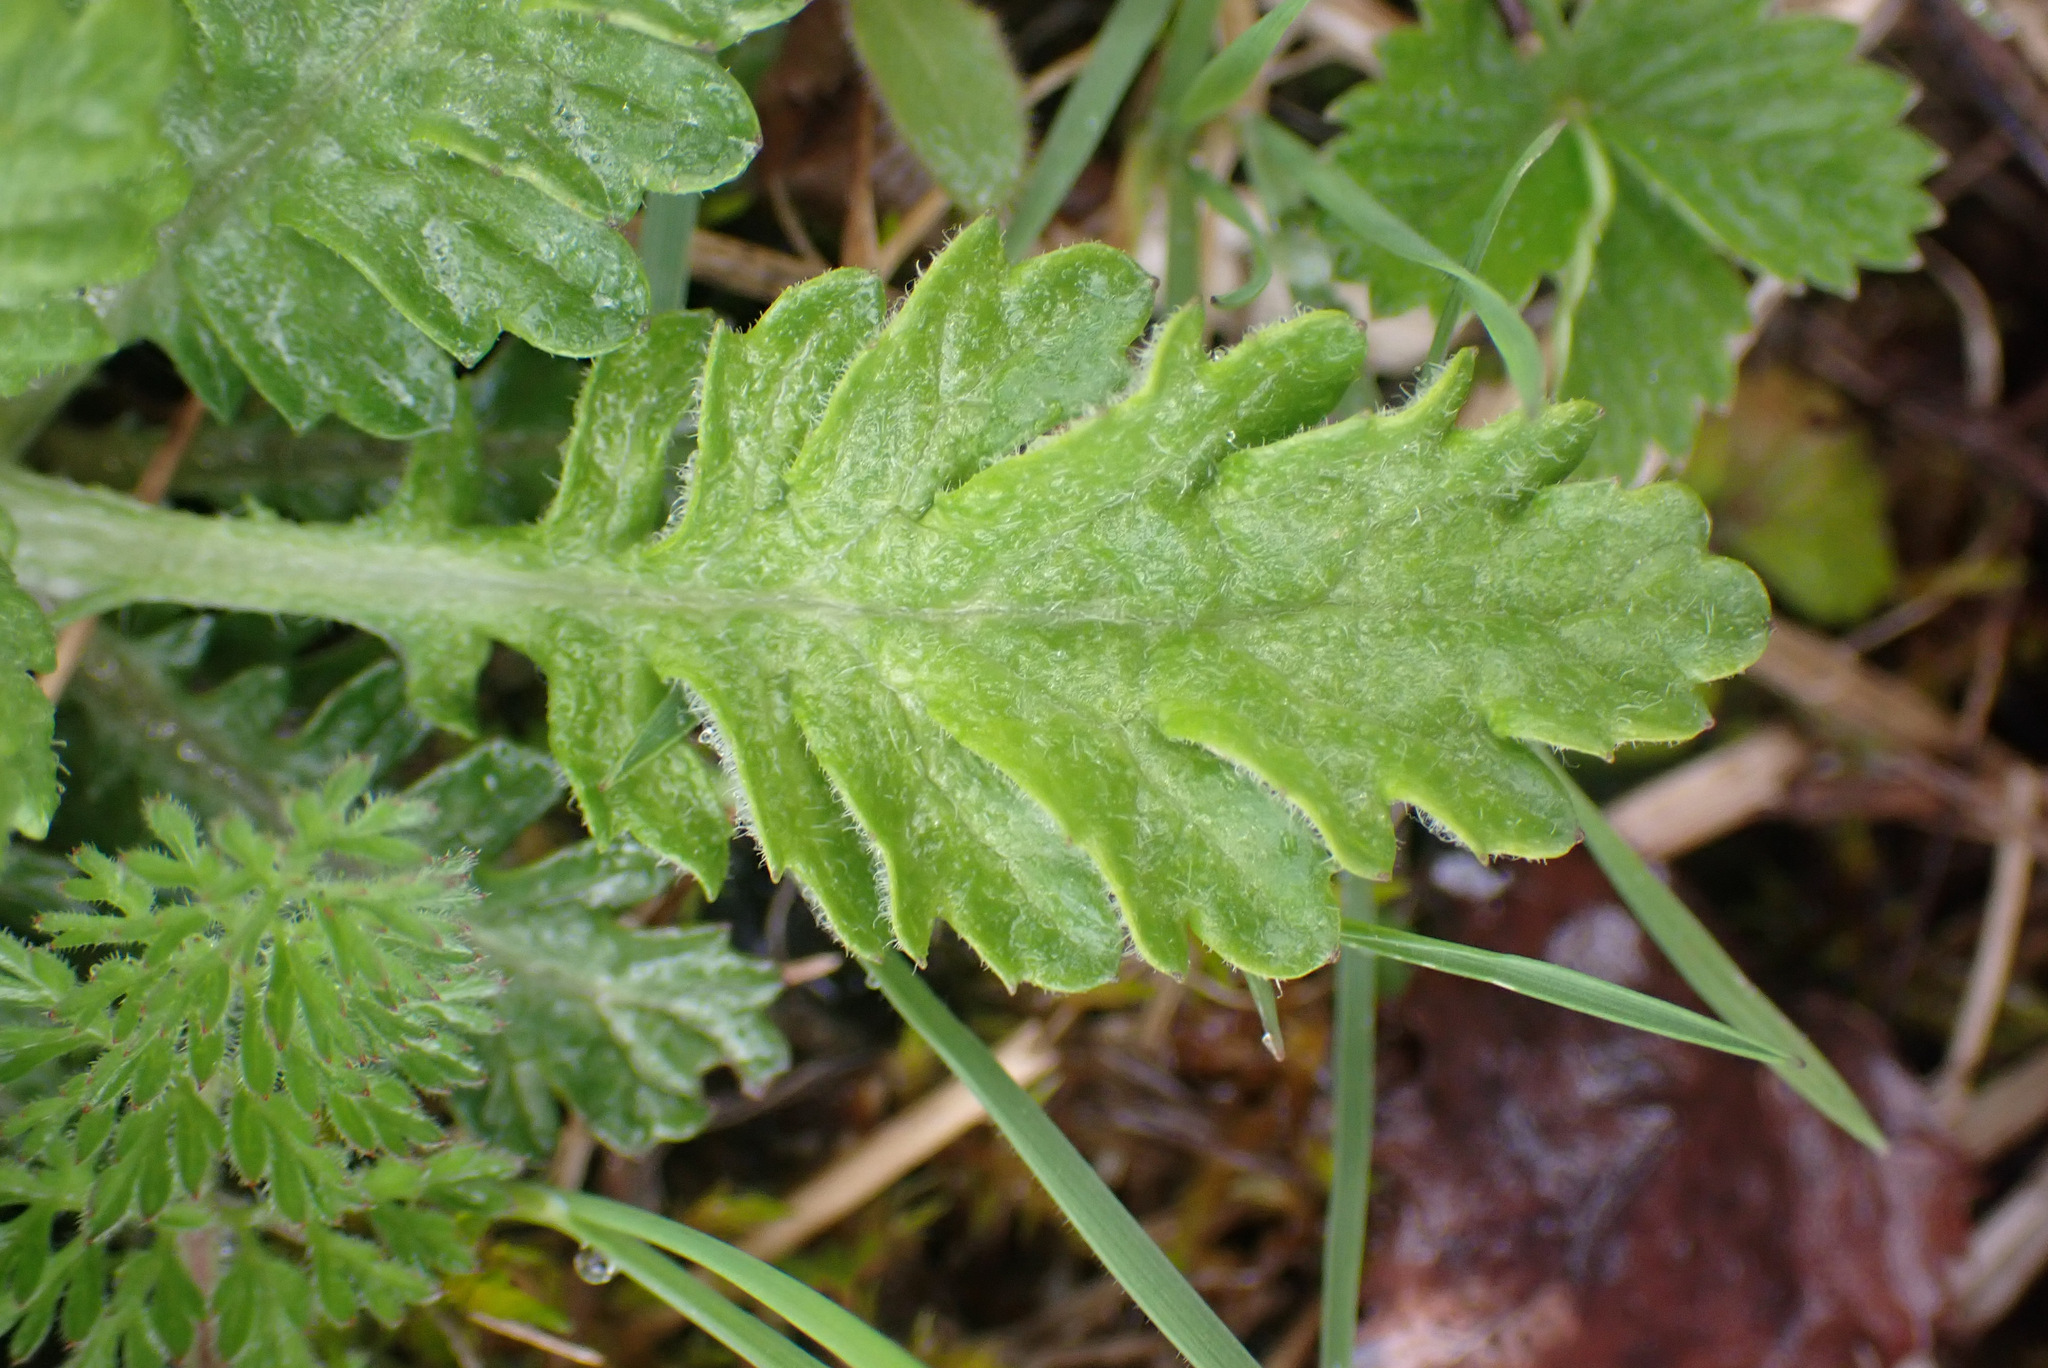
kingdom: Plantae
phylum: Tracheophyta
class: Magnoliopsida
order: Asterales
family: Asteraceae
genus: Jacobaea
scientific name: Jacobaea erucifolia
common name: Hoary ragwort
